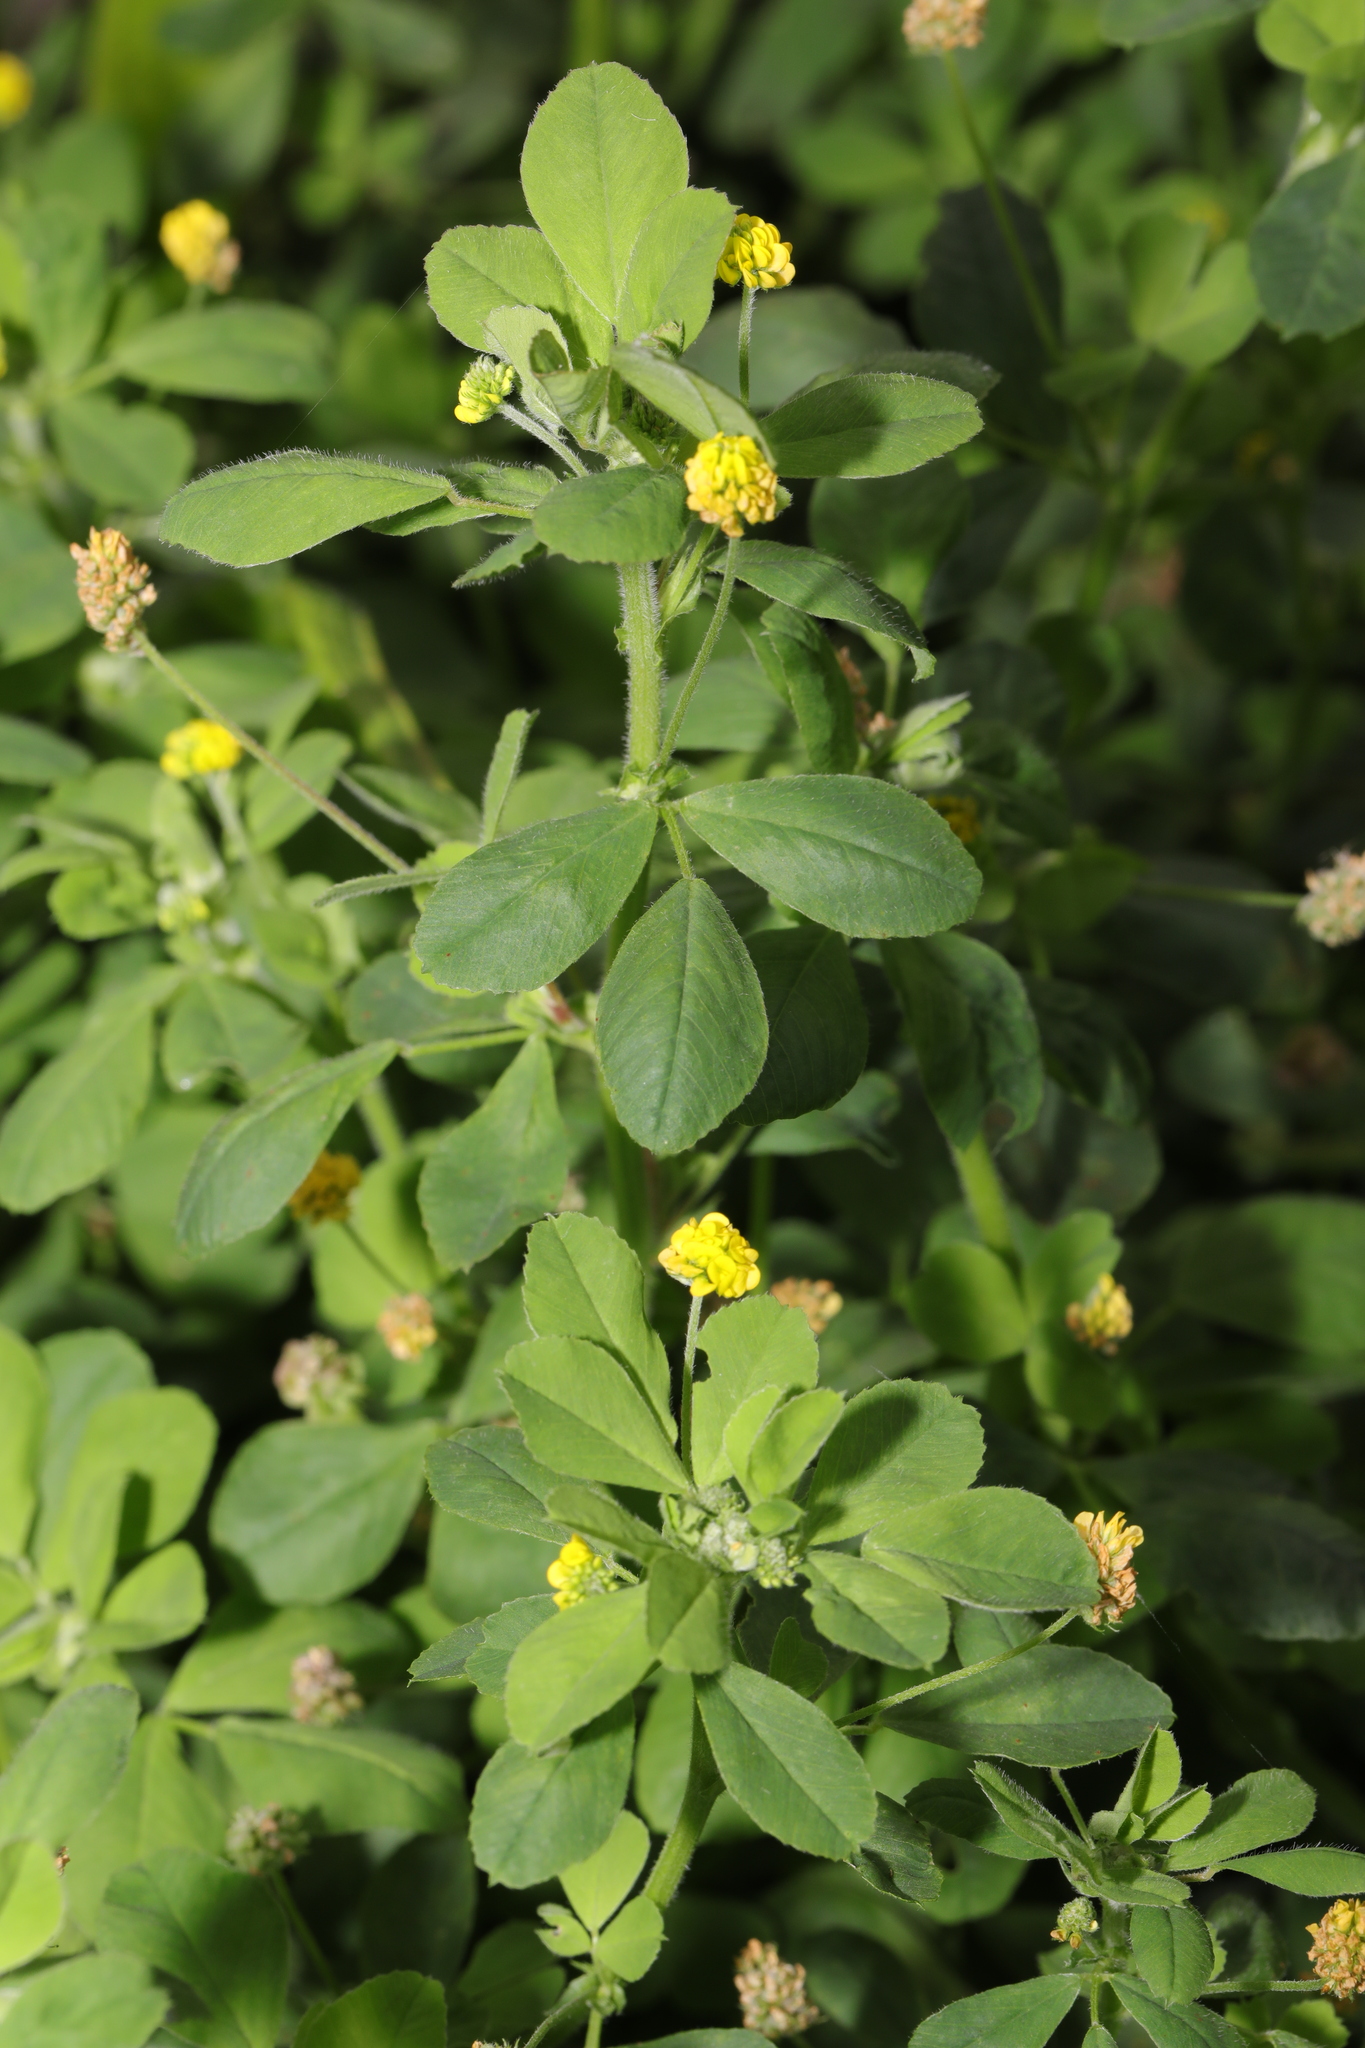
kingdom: Plantae
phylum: Tracheophyta
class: Magnoliopsida
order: Fabales
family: Fabaceae
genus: Medicago
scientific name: Medicago lupulina
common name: Black medick
